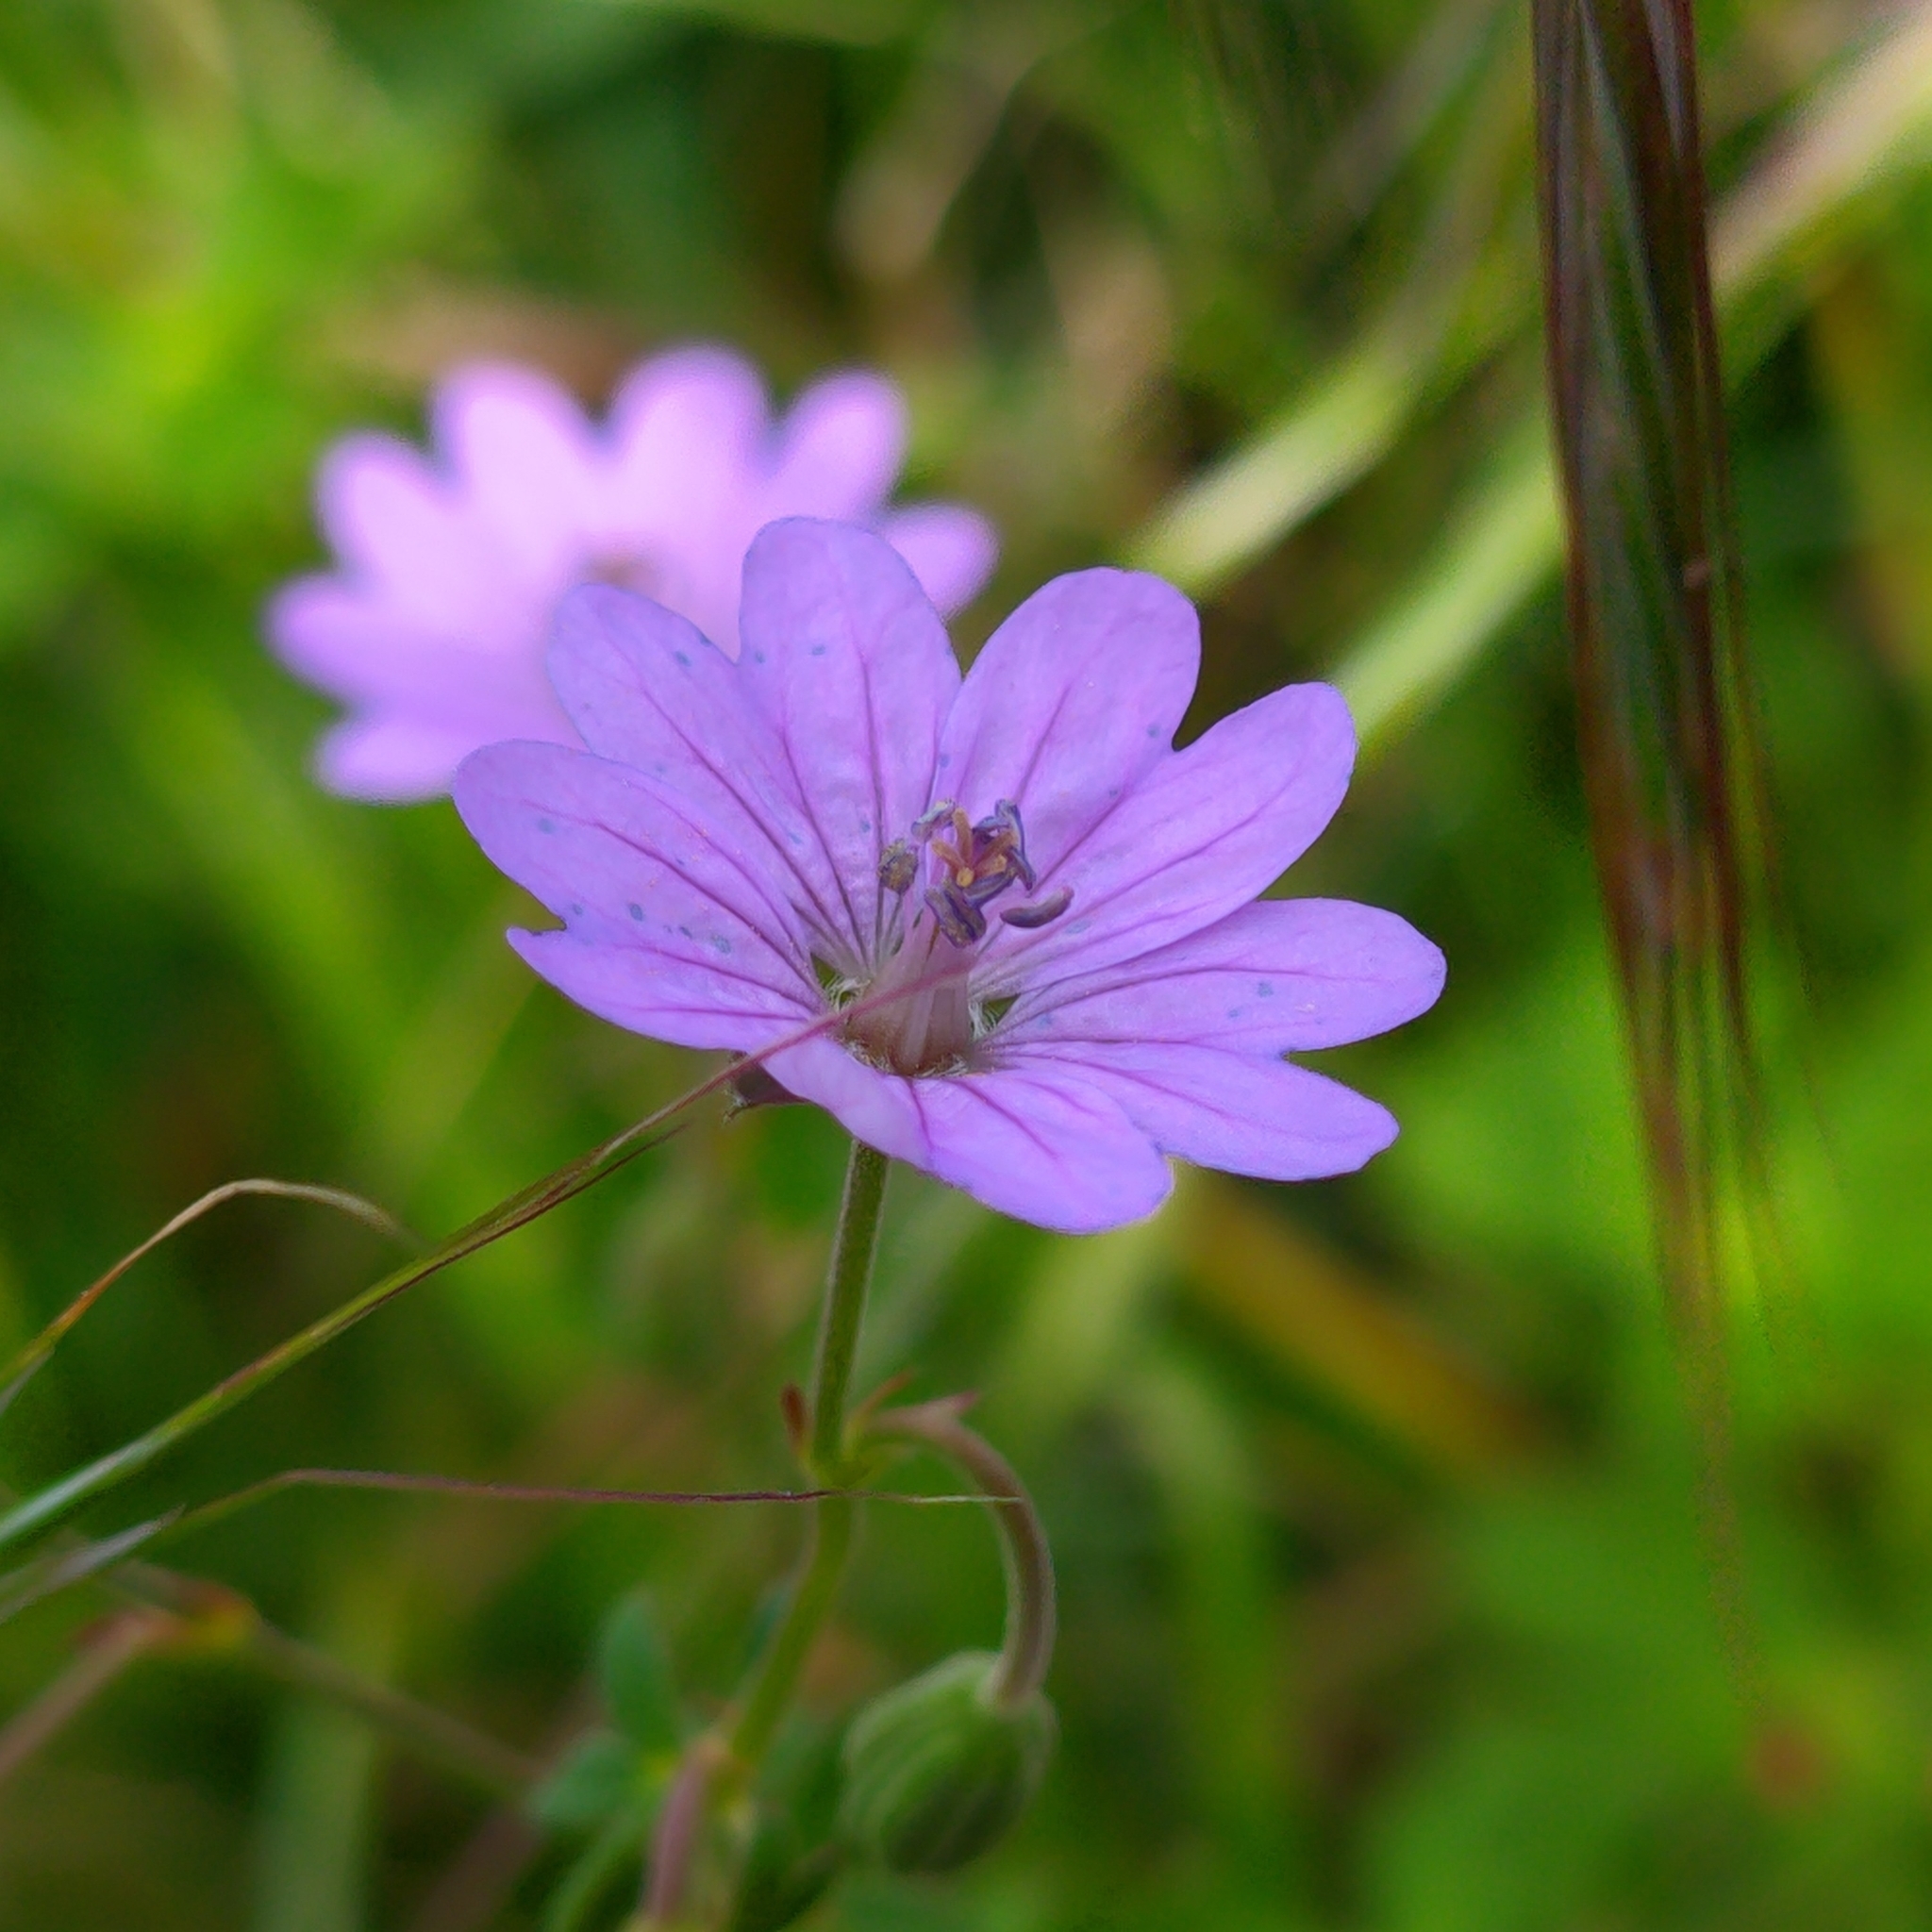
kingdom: Plantae
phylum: Tracheophyta
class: Magnoliopsida
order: Geraniales
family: Geraniaceae
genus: Geranium
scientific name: Geranium pyrenaicum
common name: Hedgerow crane's-bill
